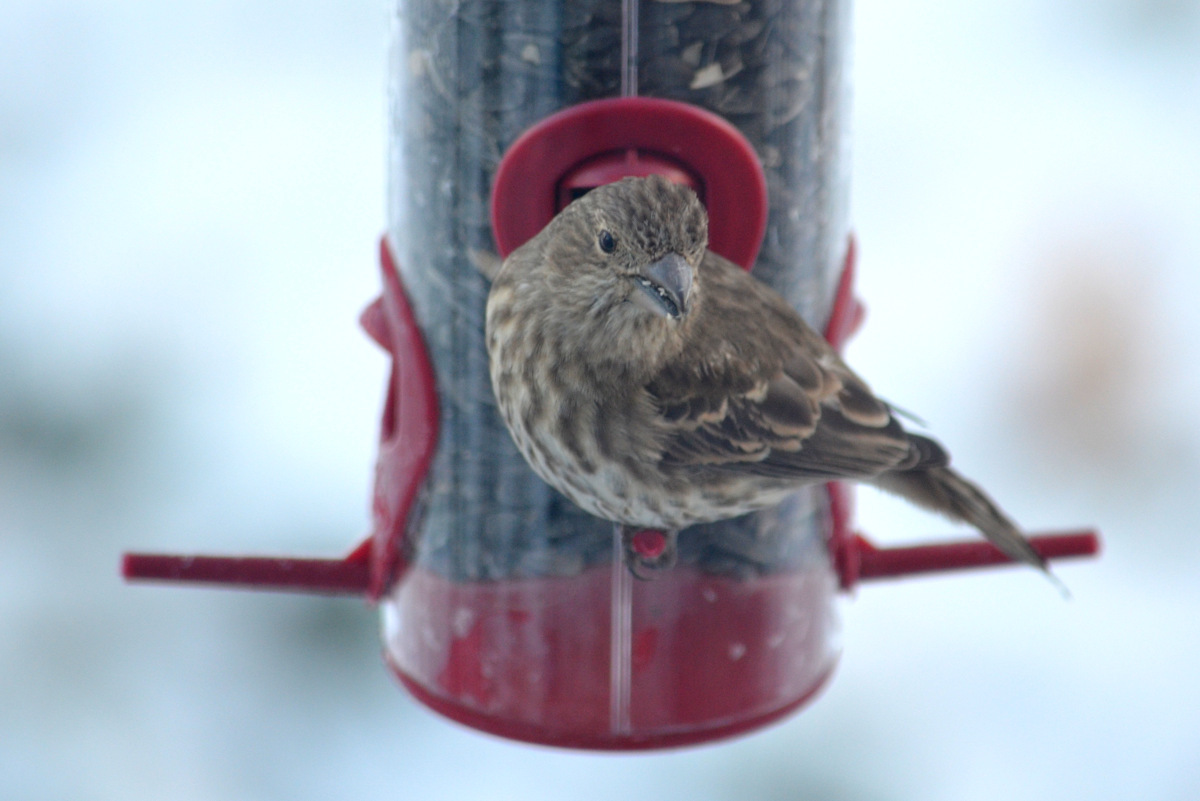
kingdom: Animalia
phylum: Chordata
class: Aves
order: Passeriformes
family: Fringillidae
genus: Haemorhous
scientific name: Haemorhous mexicanus
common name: House finch
